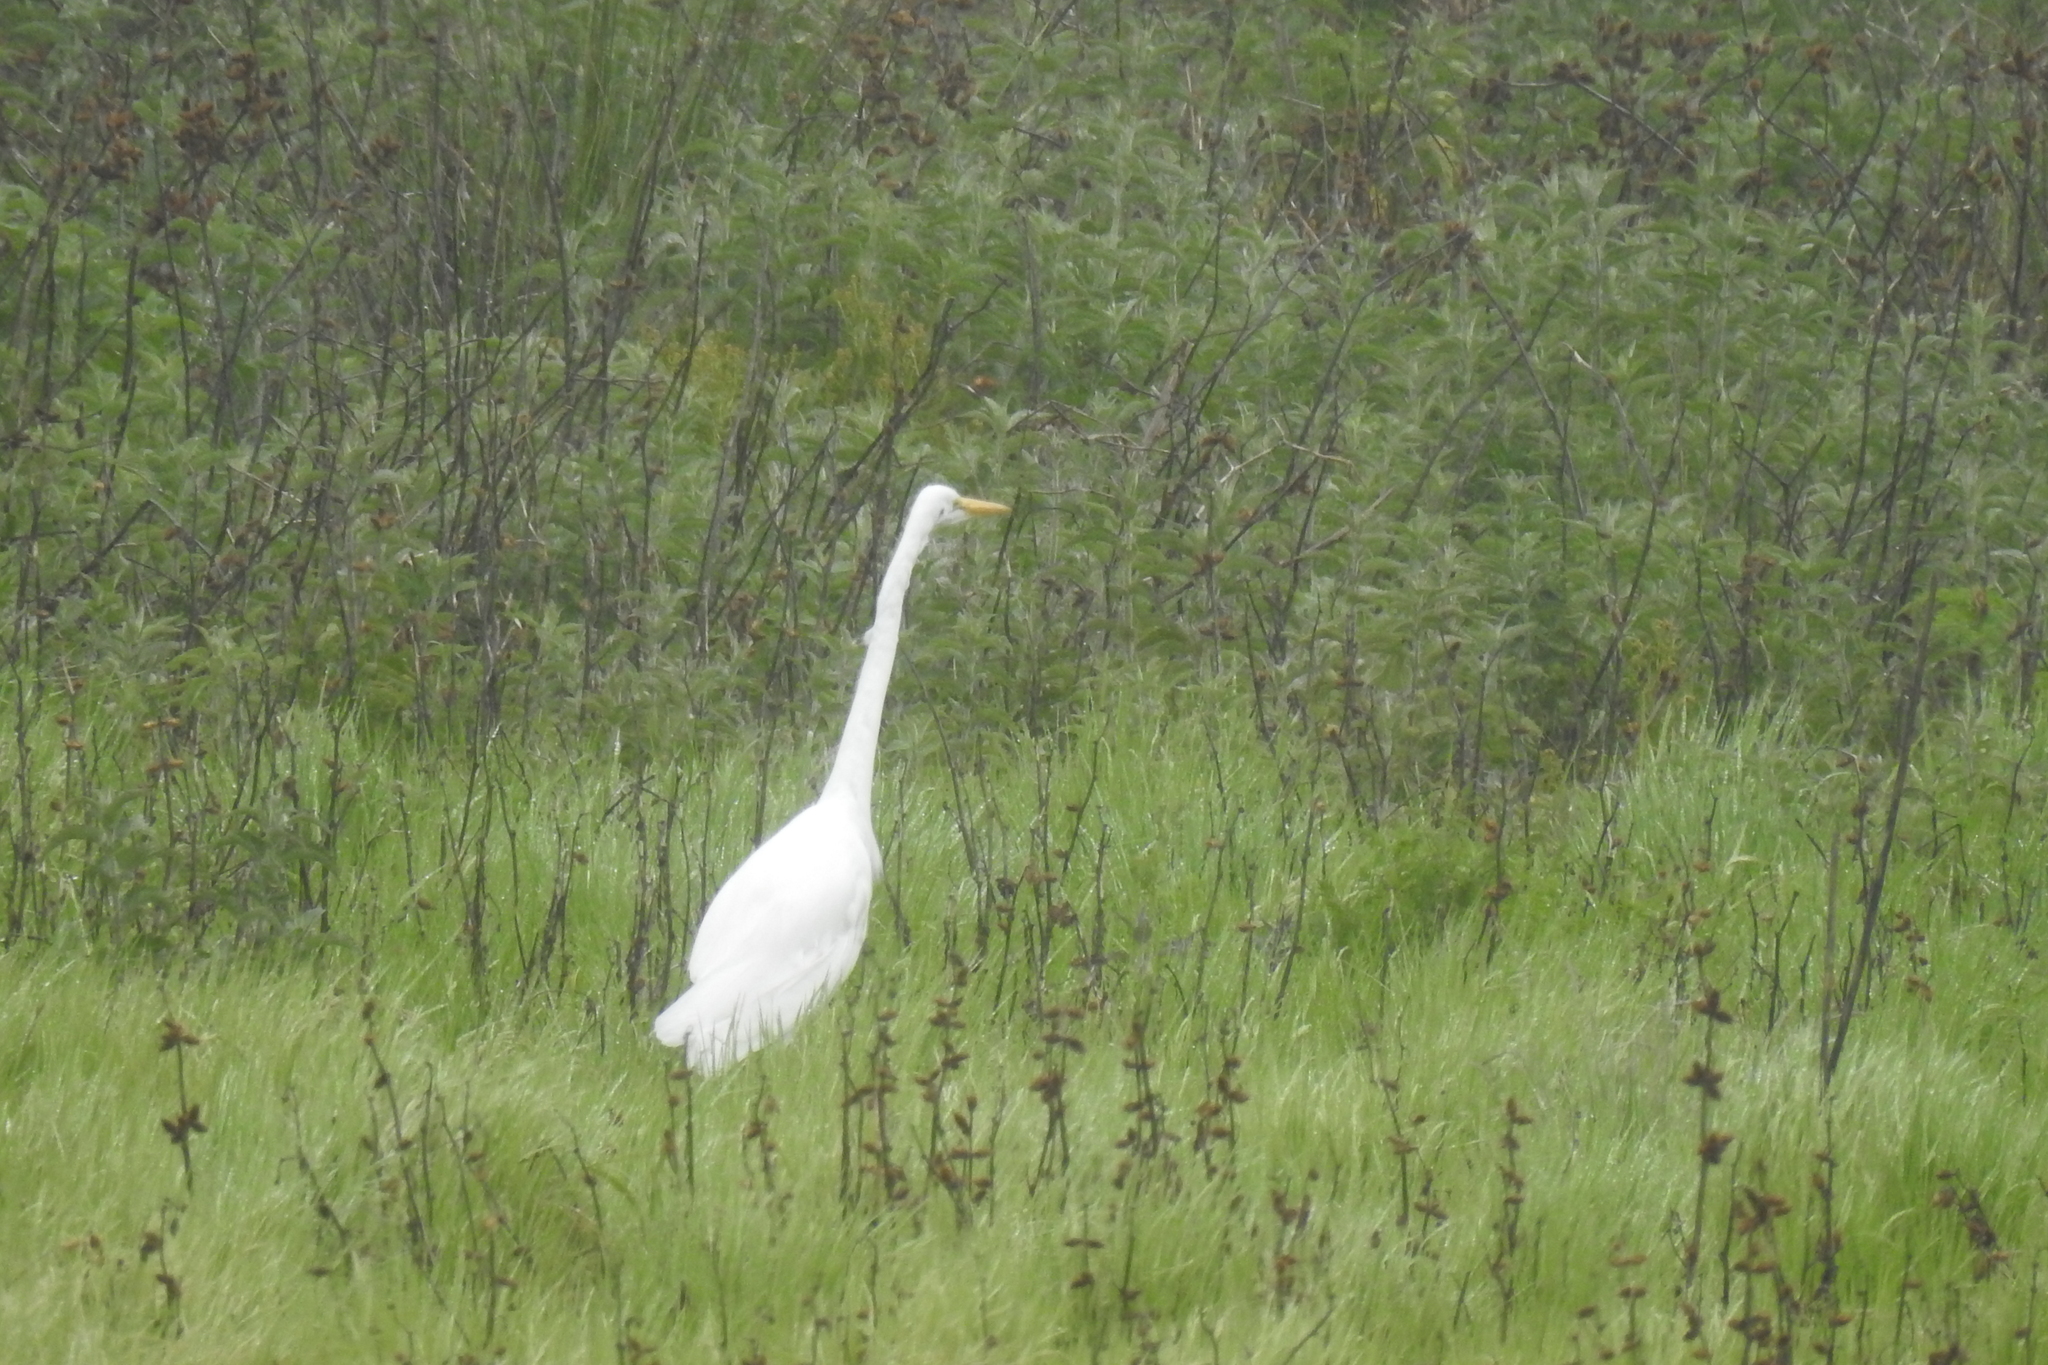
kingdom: Animalia
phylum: Chordata
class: Aves
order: Pelecaniformes
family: Ardeidae
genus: Ardea
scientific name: Ardea alba
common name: Great egret
